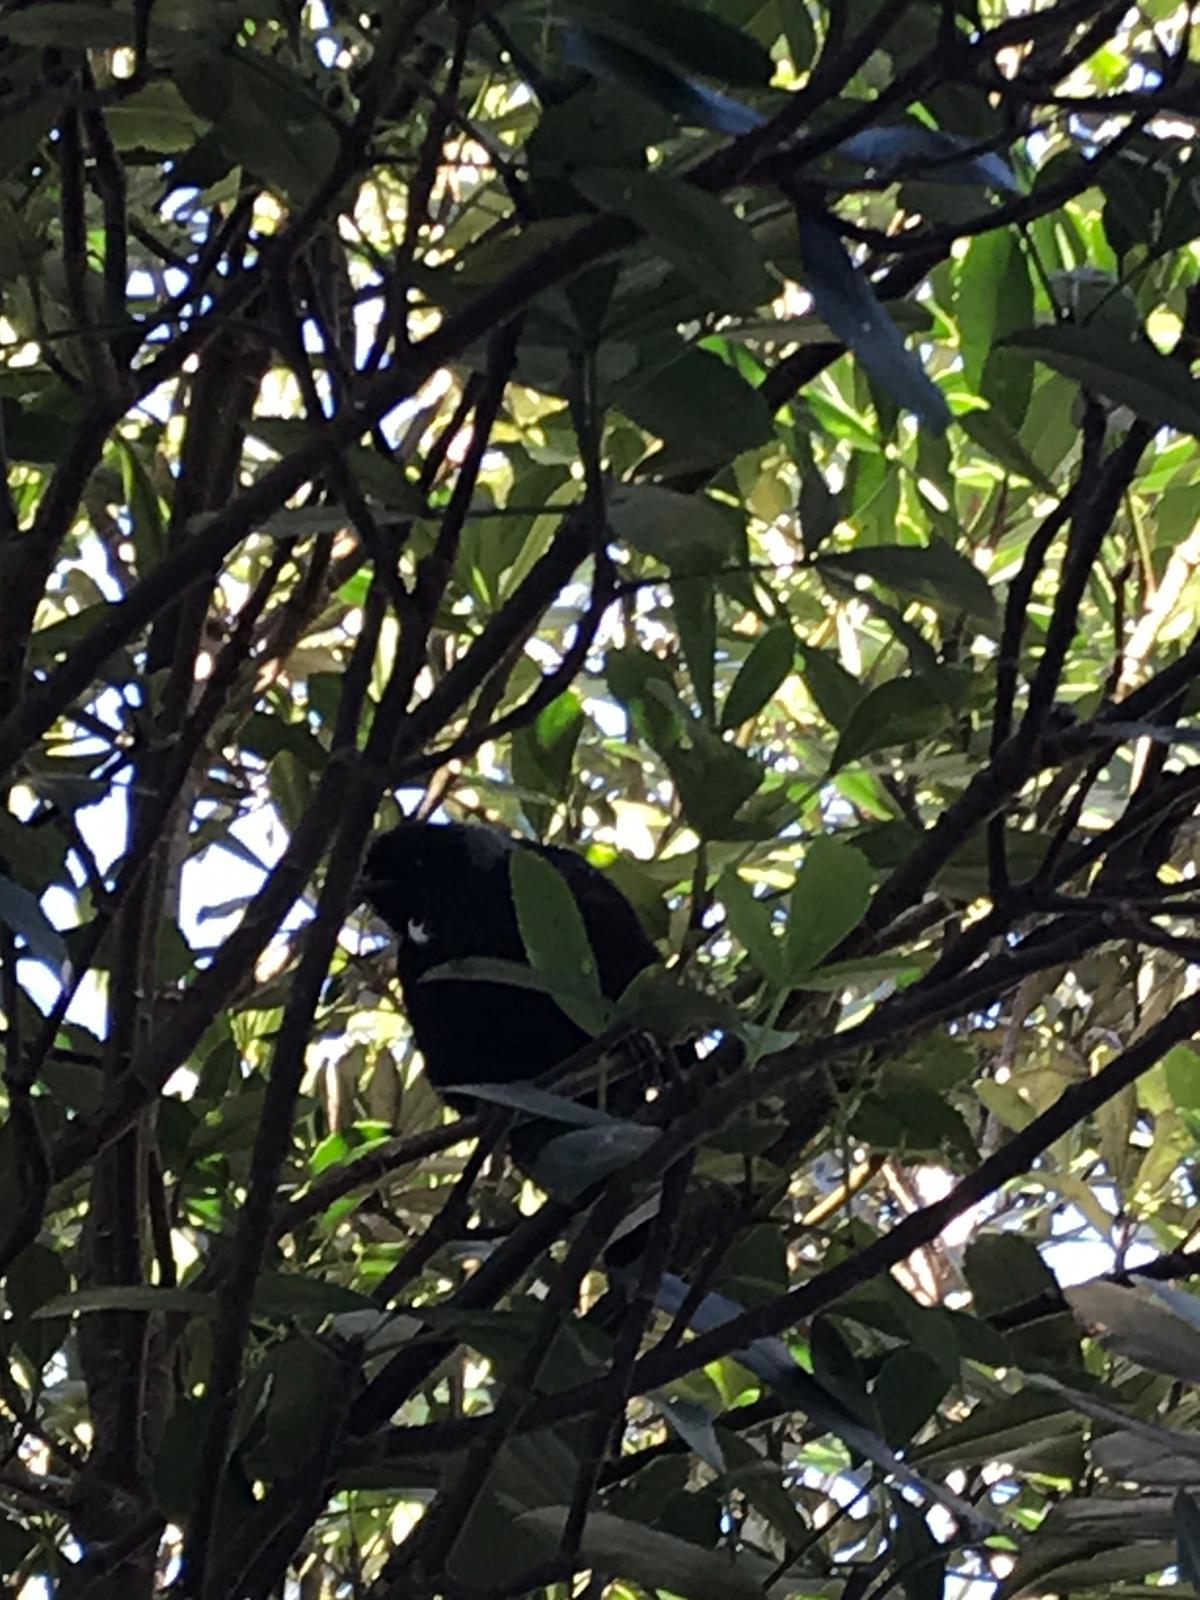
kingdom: Animalia
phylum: Chordata
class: Aves
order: Passeriformes
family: Meliphagidae
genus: Prosthemadera
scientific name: Prosthemadera novaeseelandiae
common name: Tui
